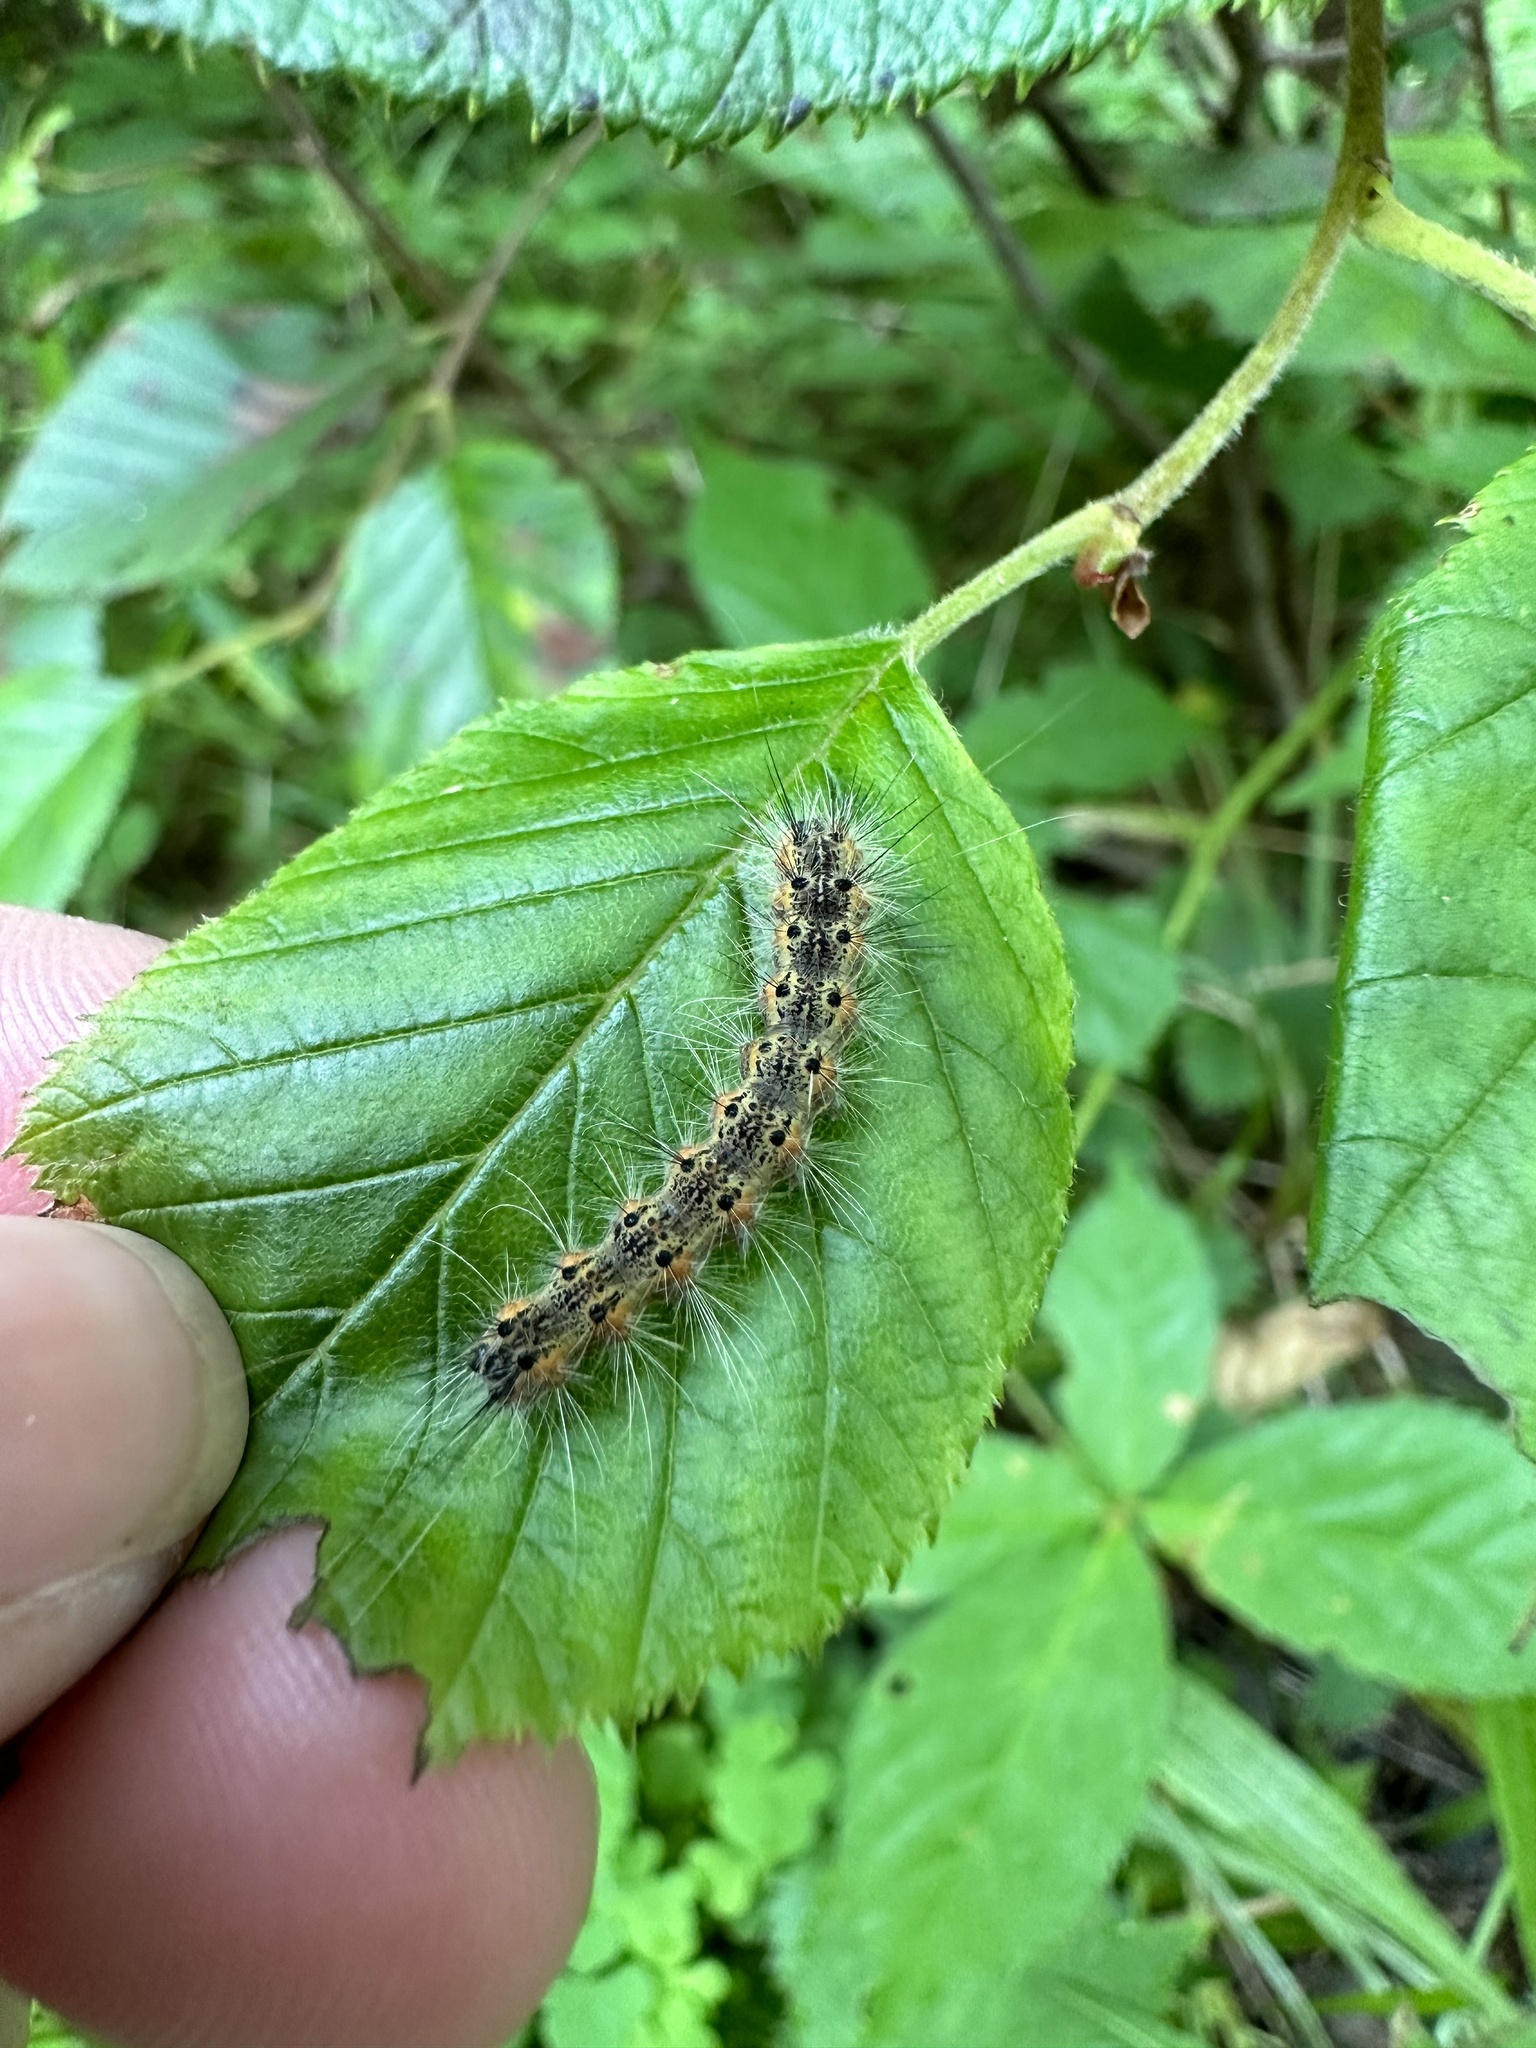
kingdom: Animalia
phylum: Arthropoda
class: Insecta
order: Lepidoptera
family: Erebidae
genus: Hyphantria
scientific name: Hyphantria cunea
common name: American white moth
